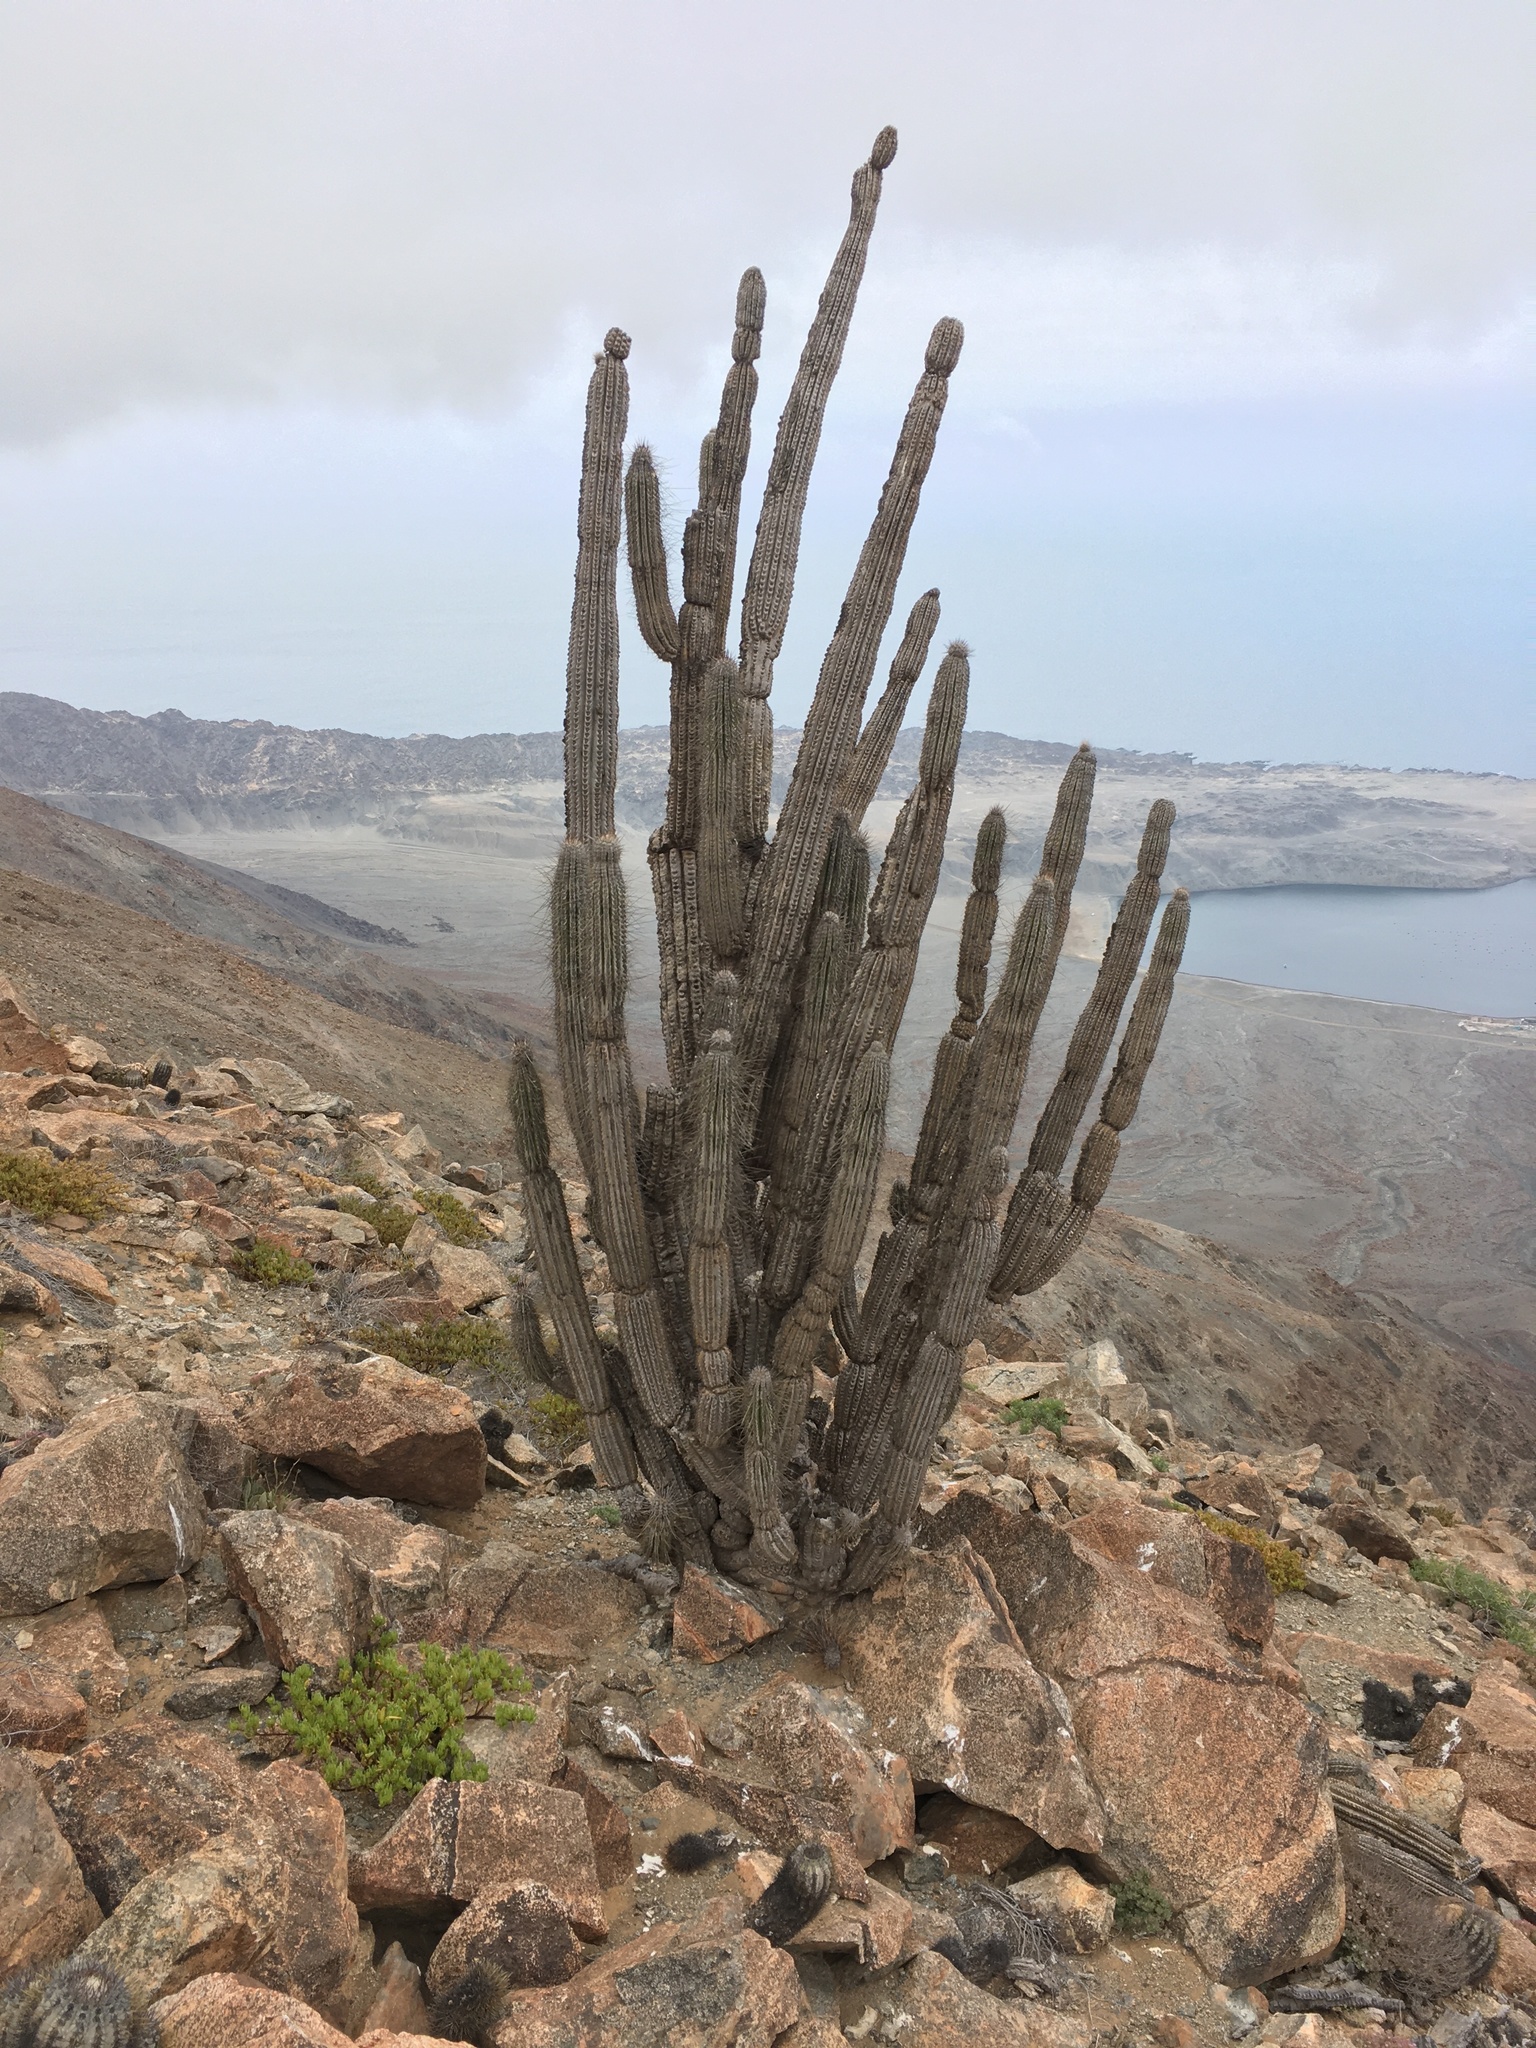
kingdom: Plantae
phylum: Tracheophyta
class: Magnoliopsida
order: Caryophyllales
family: Cactaceae
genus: Eulychnia
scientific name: Eulychnia iquiquensis
